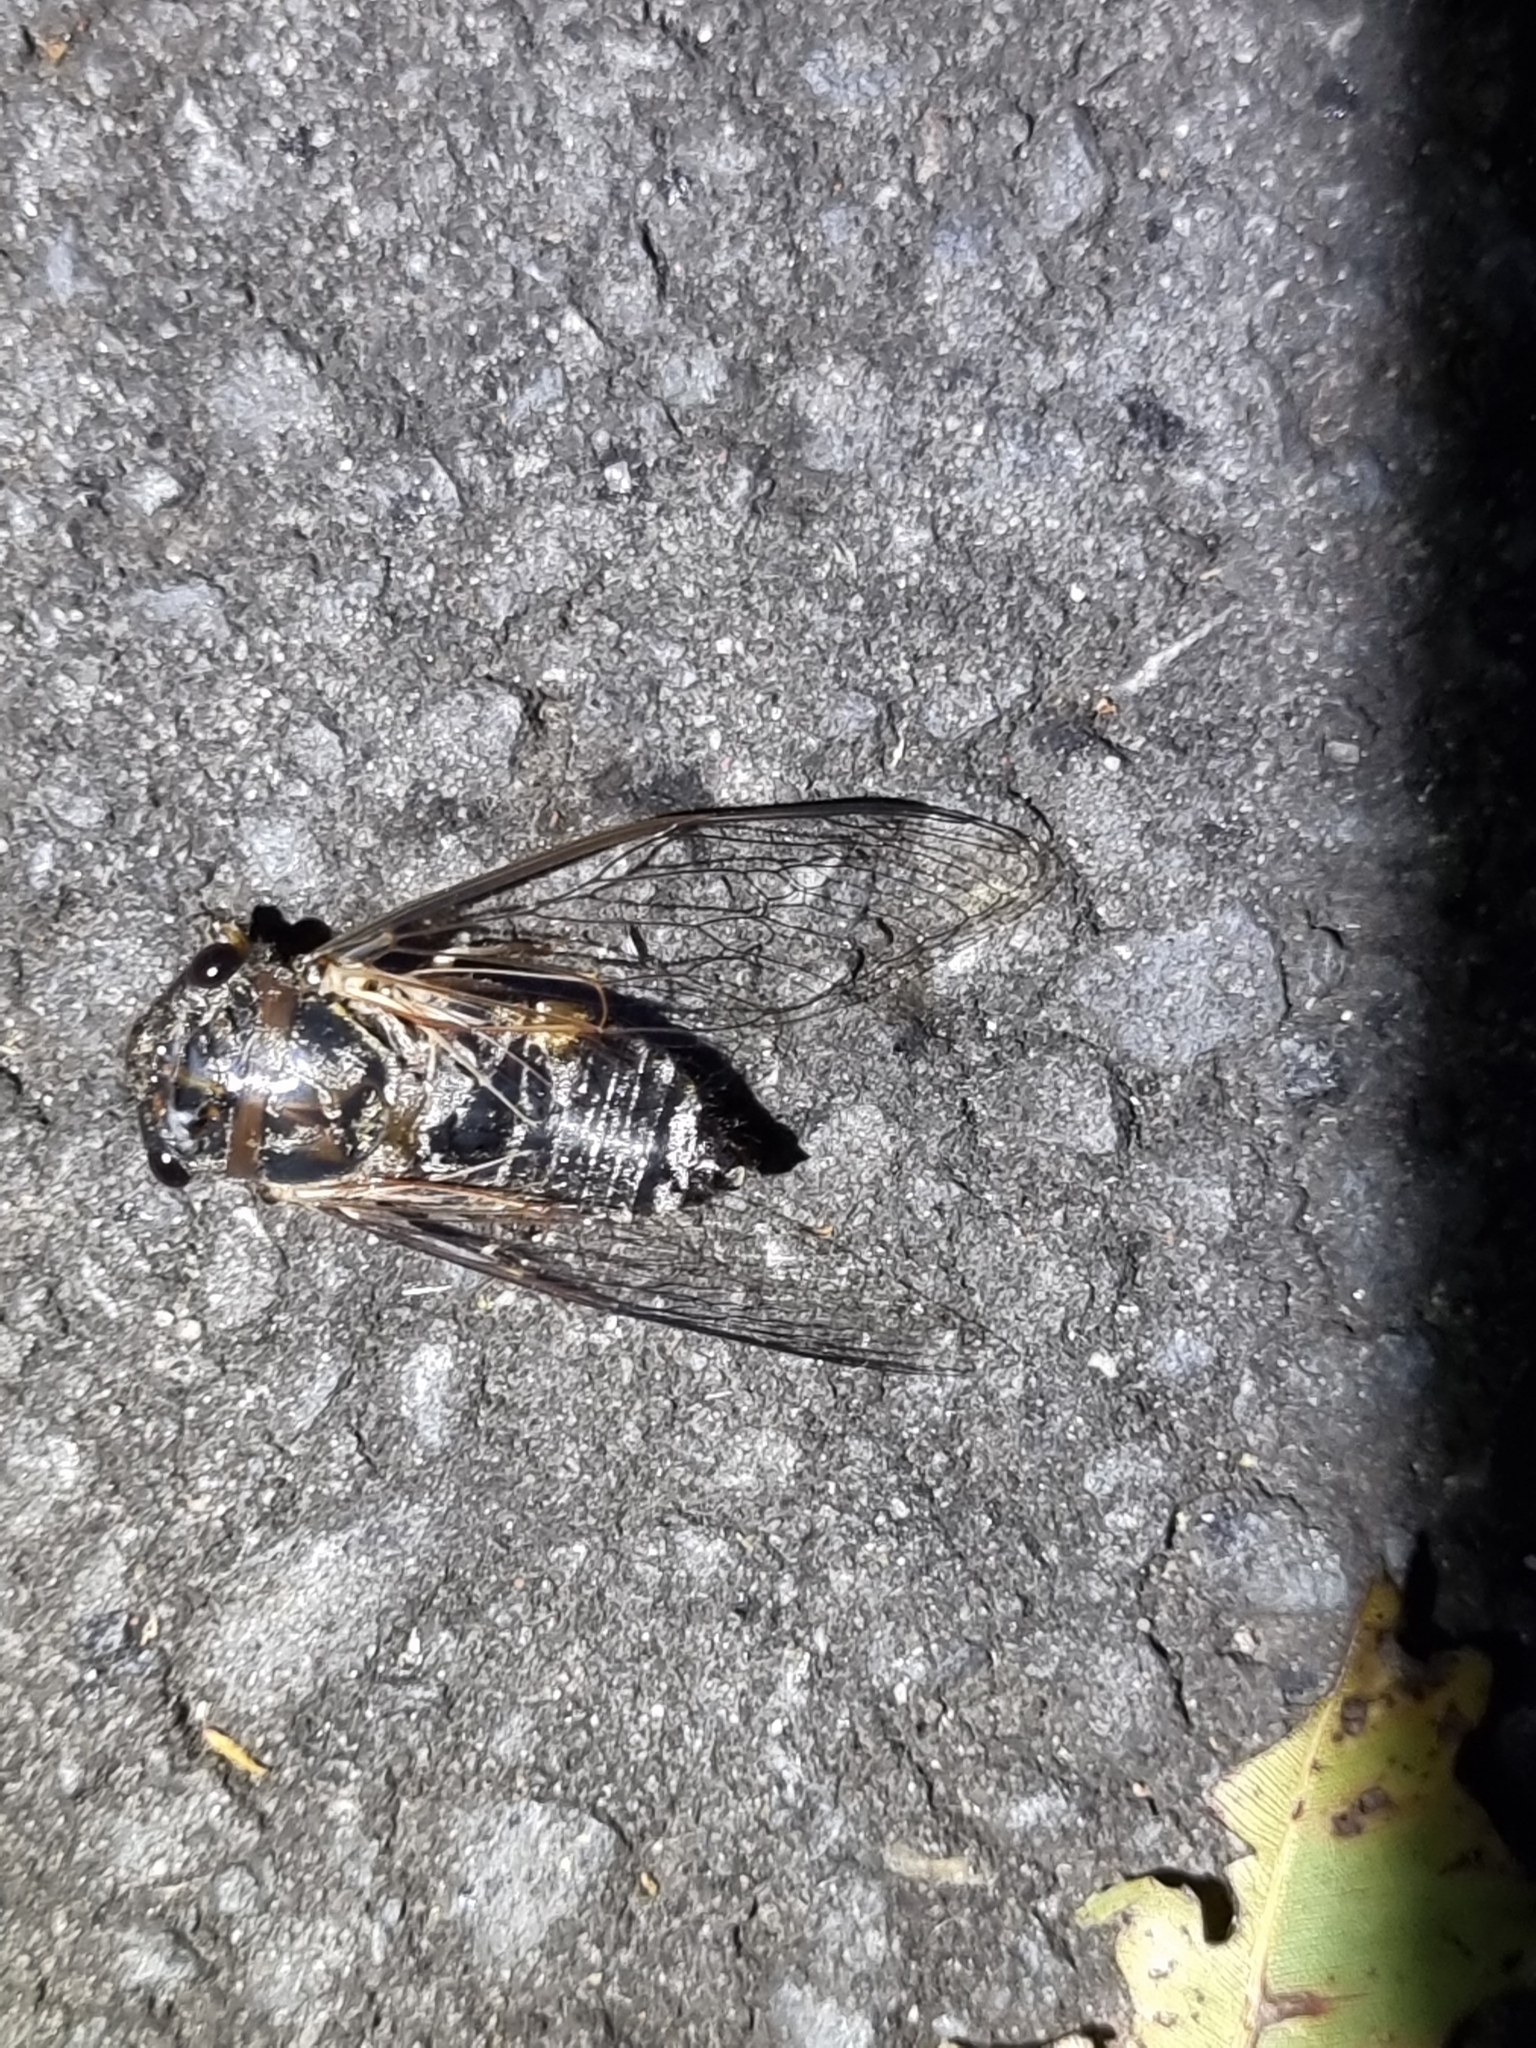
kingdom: Animalia
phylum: Arthropoda
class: Insecta
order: Hemiptera
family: Cicadidae
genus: Psaltoda
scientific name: Psaltoda harrisii
